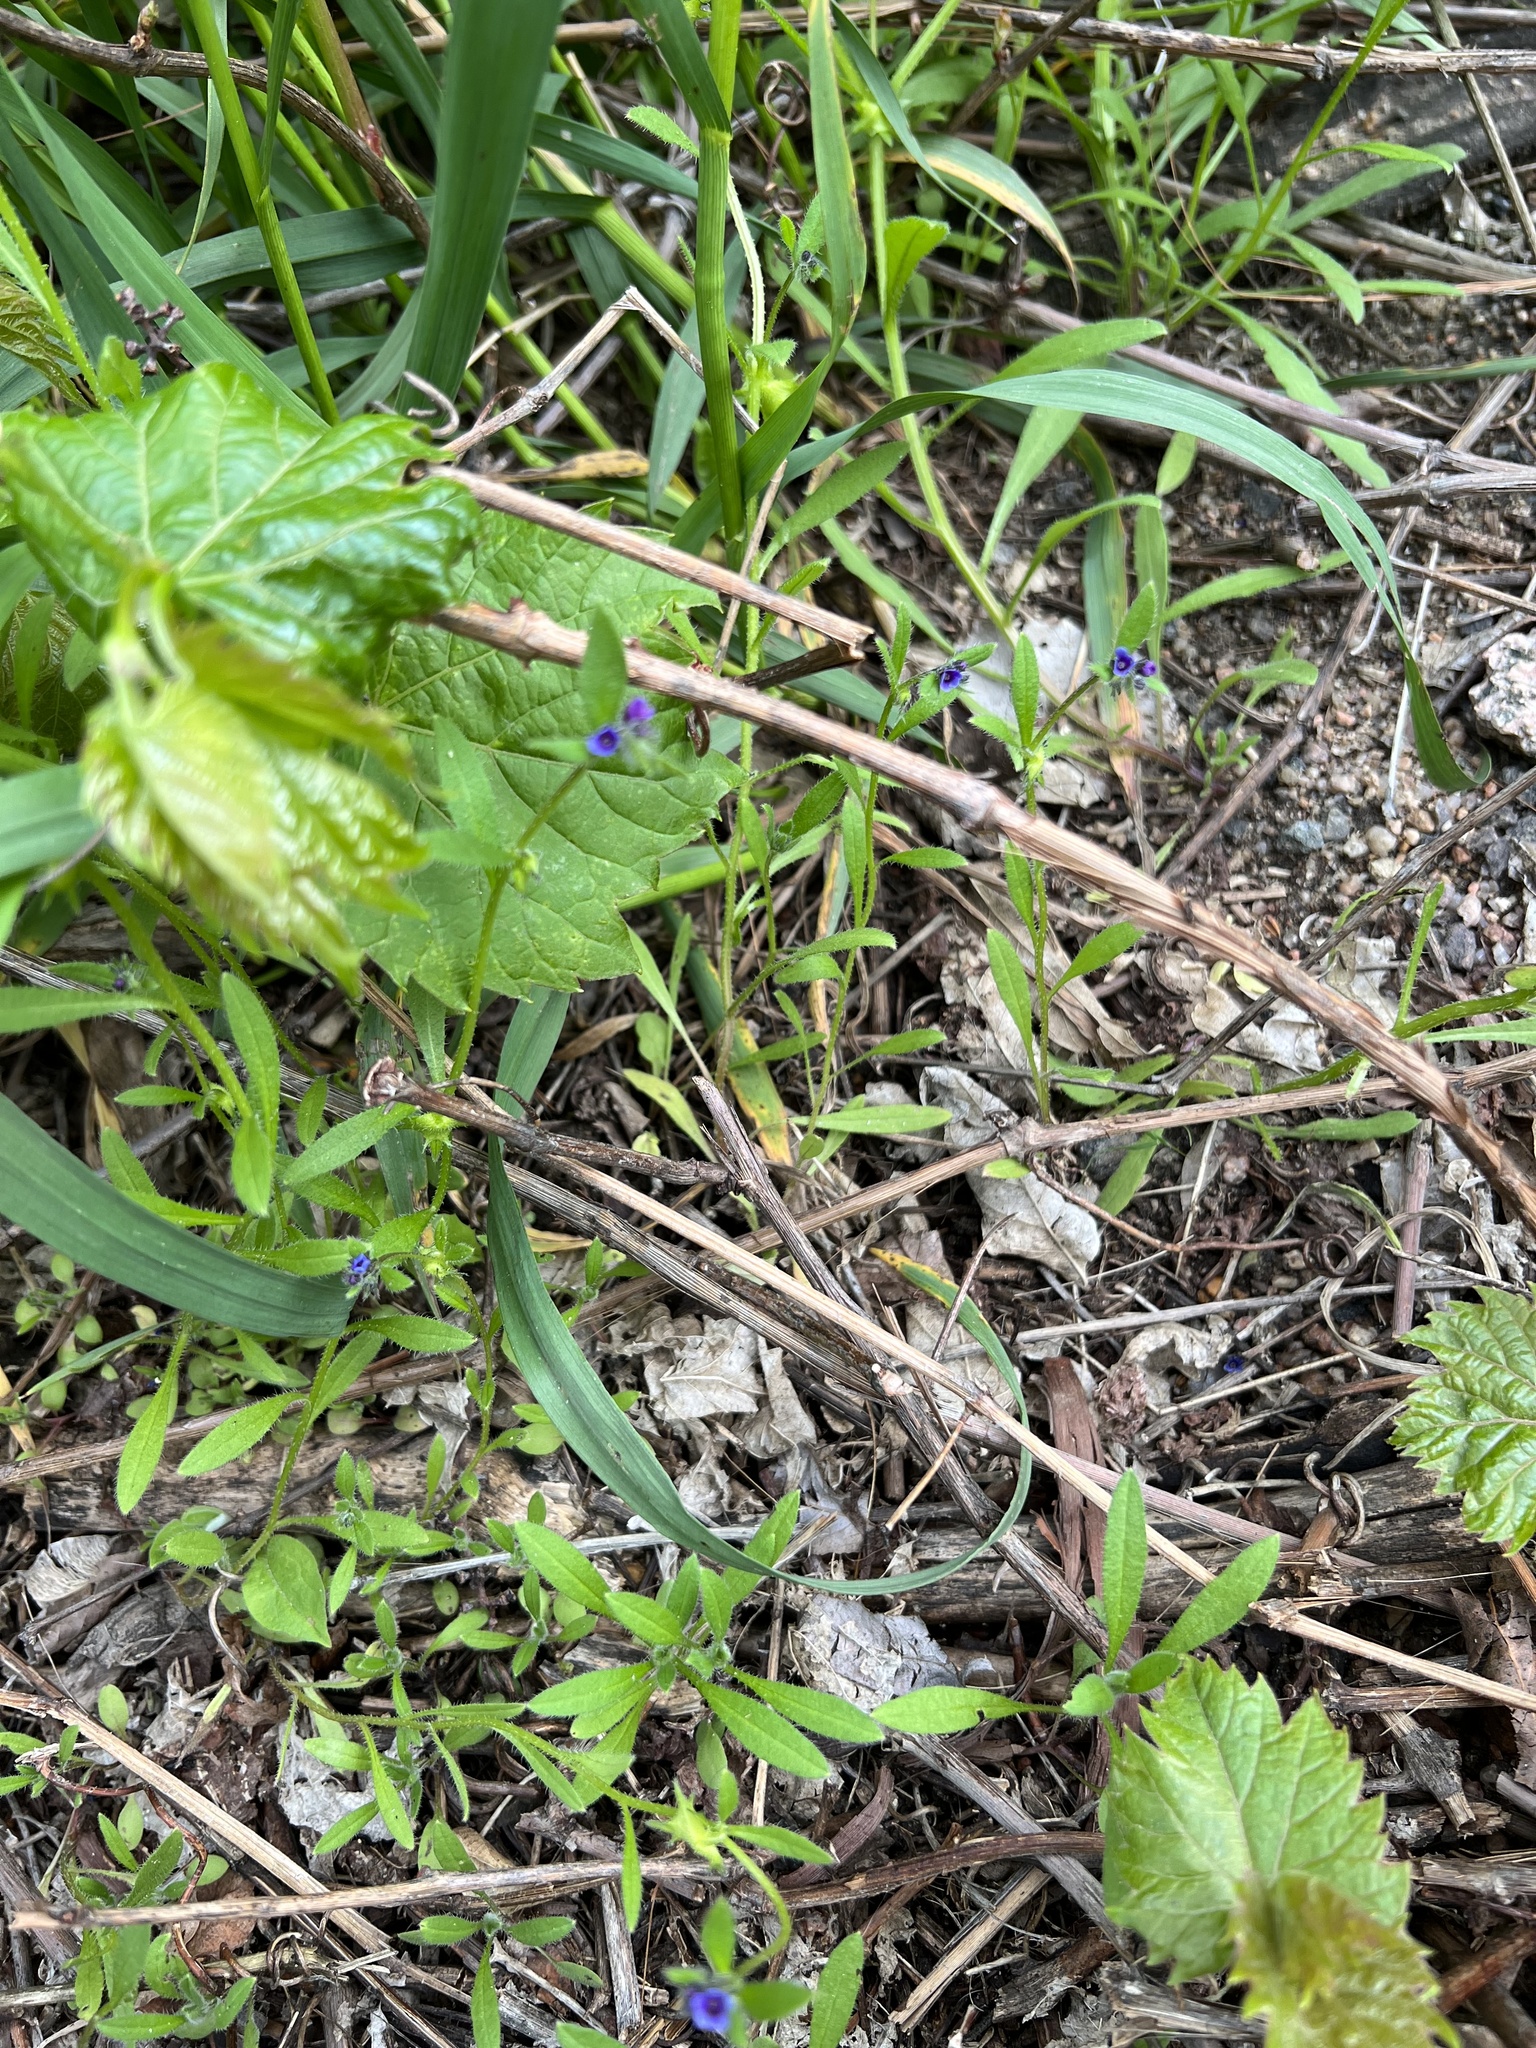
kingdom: Plantae
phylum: Tracheophyta
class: Magnoliopsida
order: Boraginales
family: Boraginaceae
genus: Asperugo
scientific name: Asperugo procumbens
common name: Madwort
